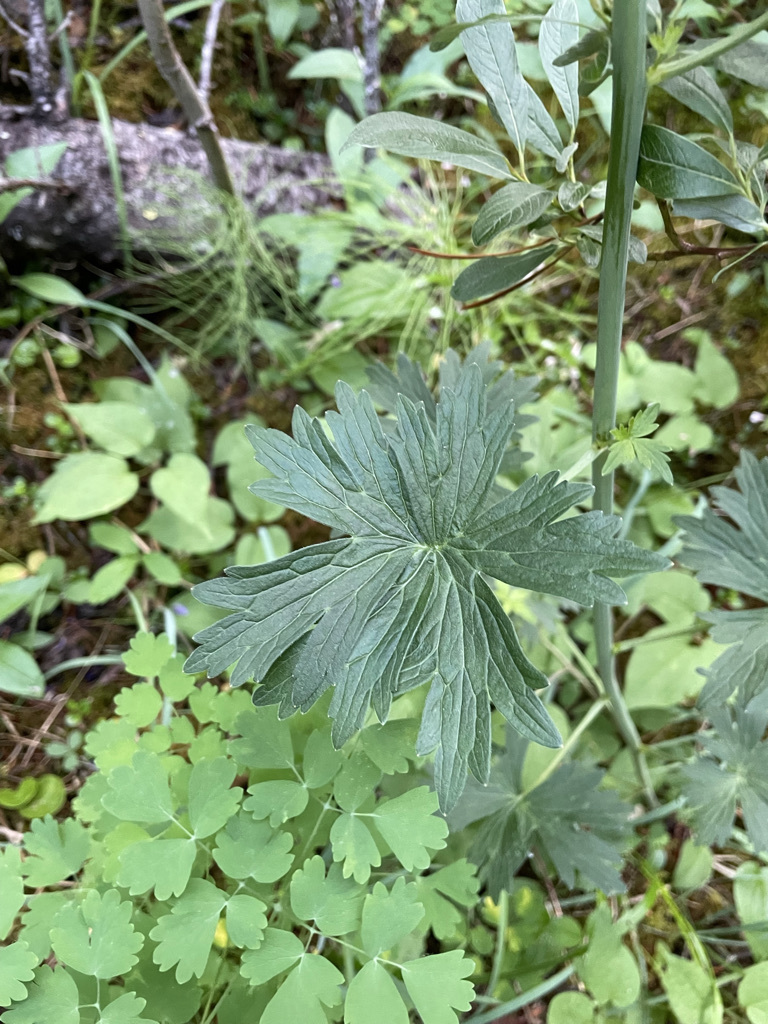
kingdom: Plantae
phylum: Tracheophyta
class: Magnoliopsida
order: Ranunculales
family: Ranunculaceae
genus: Delphinium
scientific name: Delphinium glaucum
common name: Brown's larkspur
